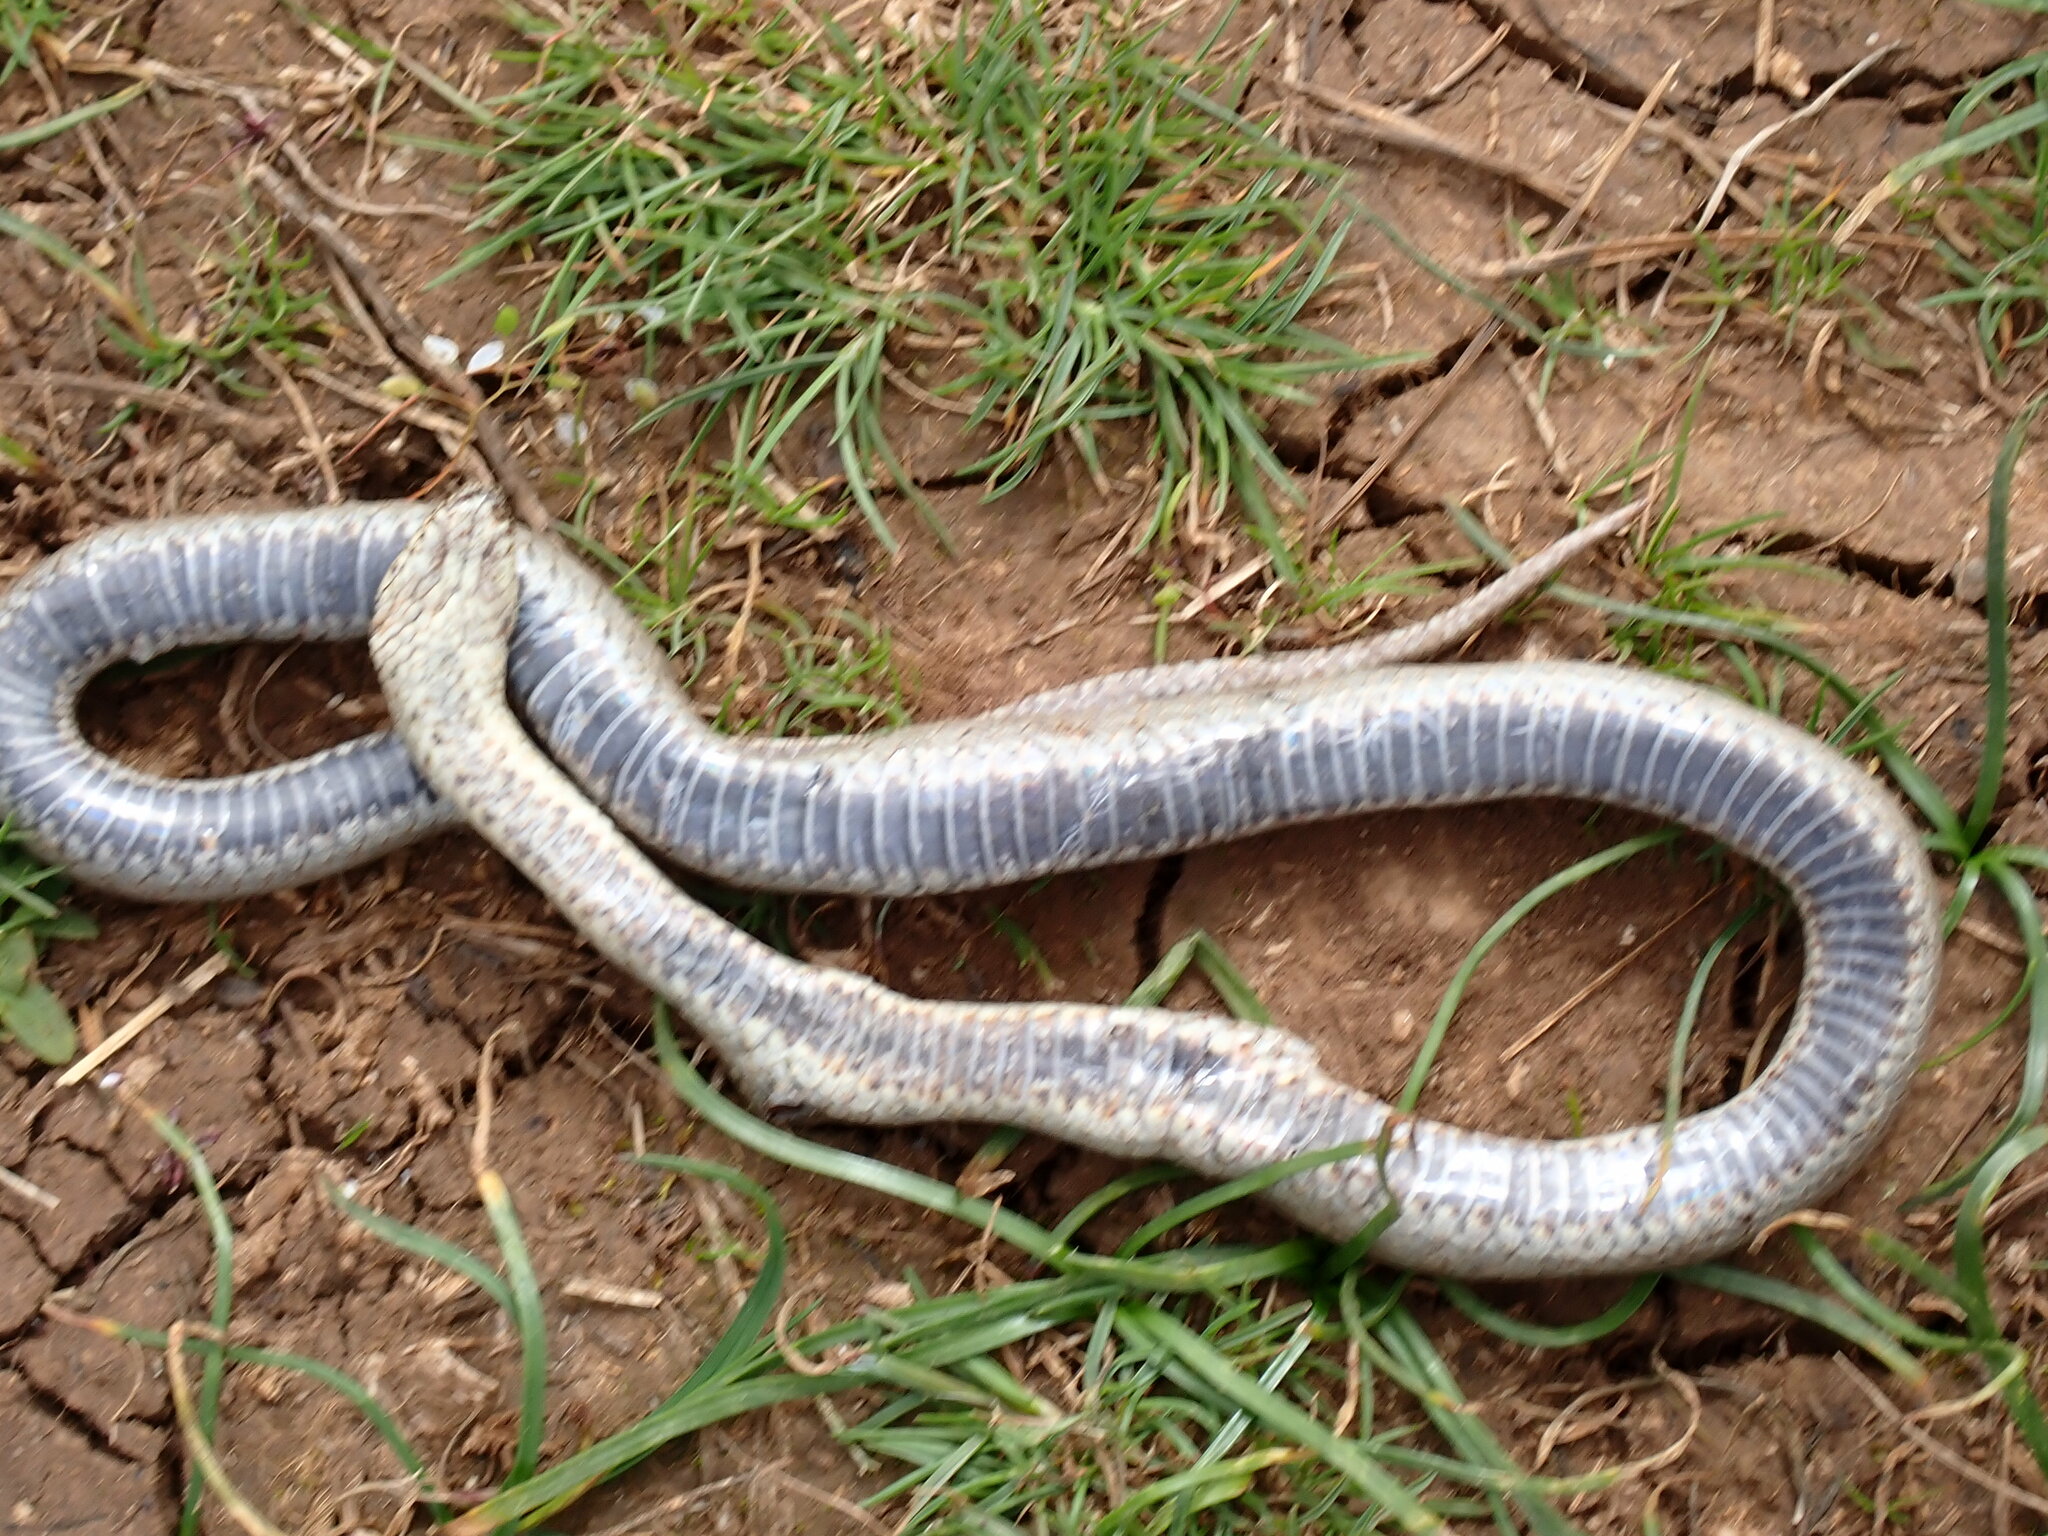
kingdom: Animalia
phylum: Chordata
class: Squamata
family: Colubridae
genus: Coronella
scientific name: Coronella austriaca
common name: Smooth snake
